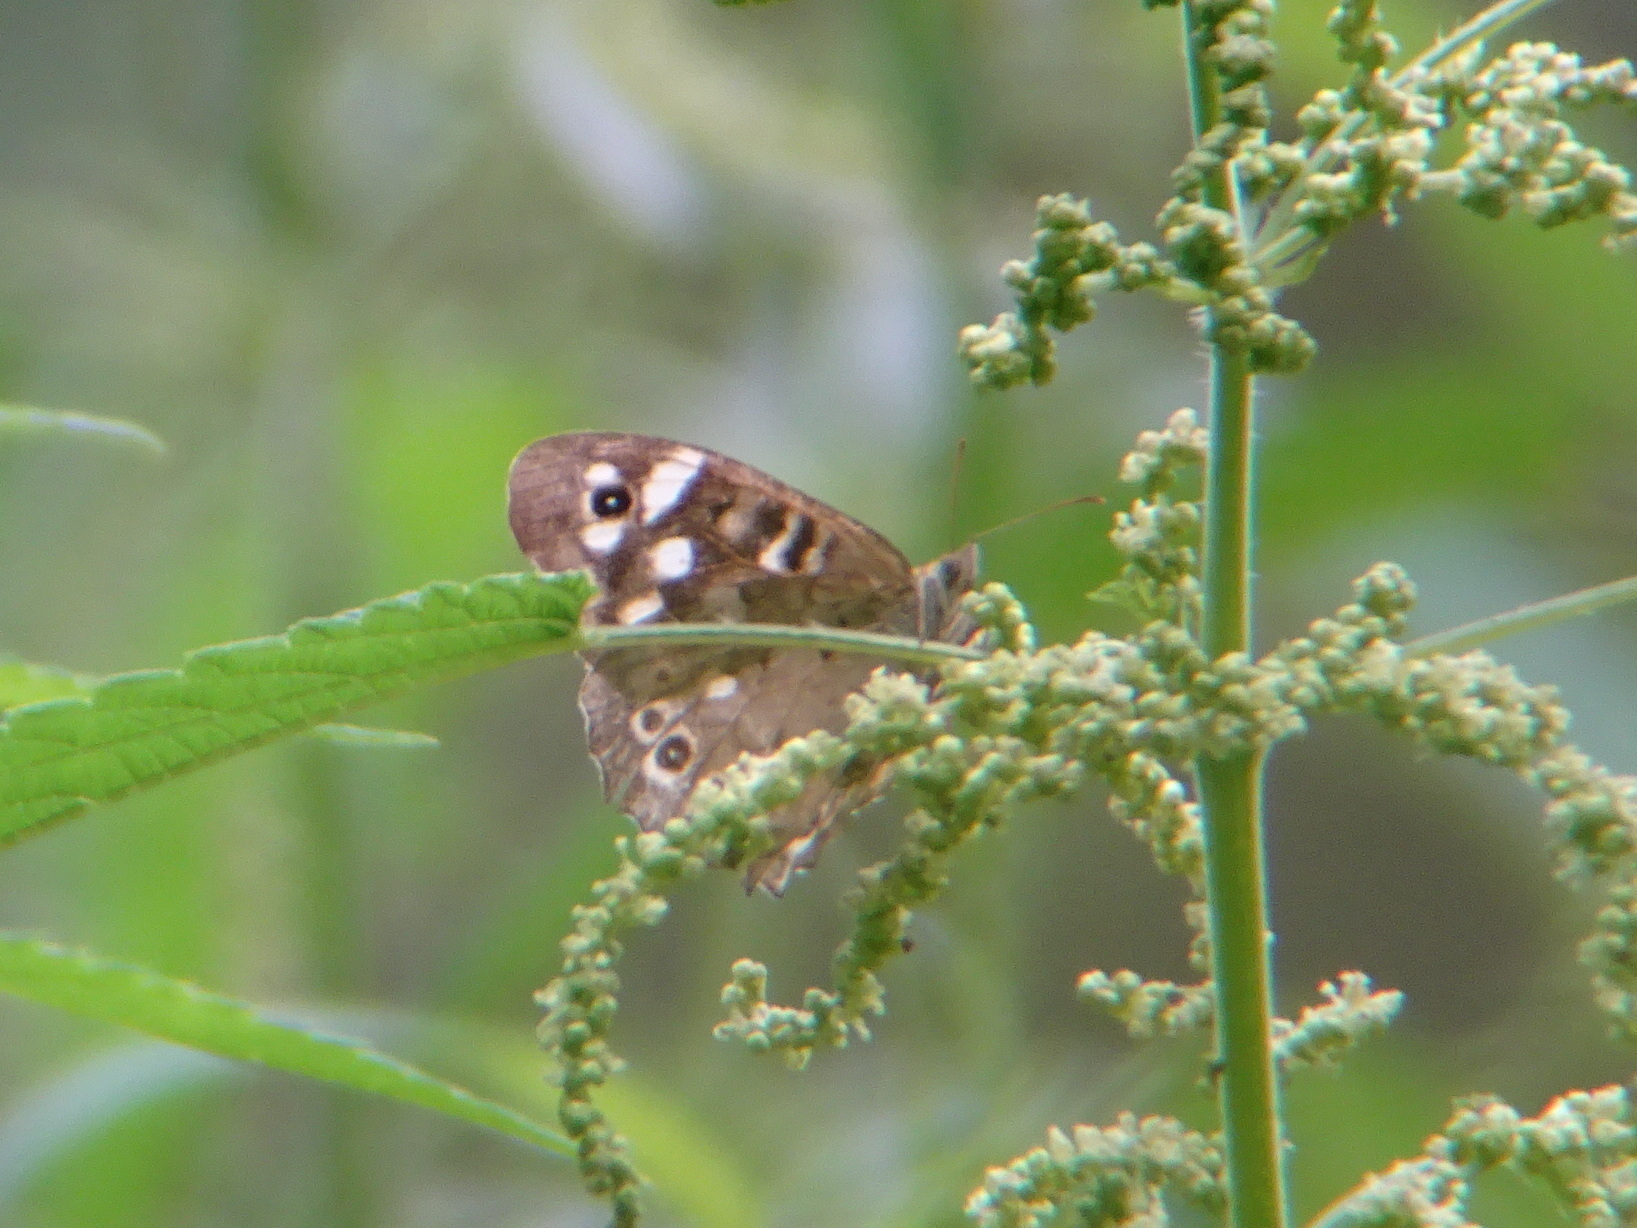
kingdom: Animalia
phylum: Arthropoda
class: Insecta
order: Lepidoptera
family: Nymphalidae
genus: Pararge
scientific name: Pararge aegeria
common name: Speckled wood
